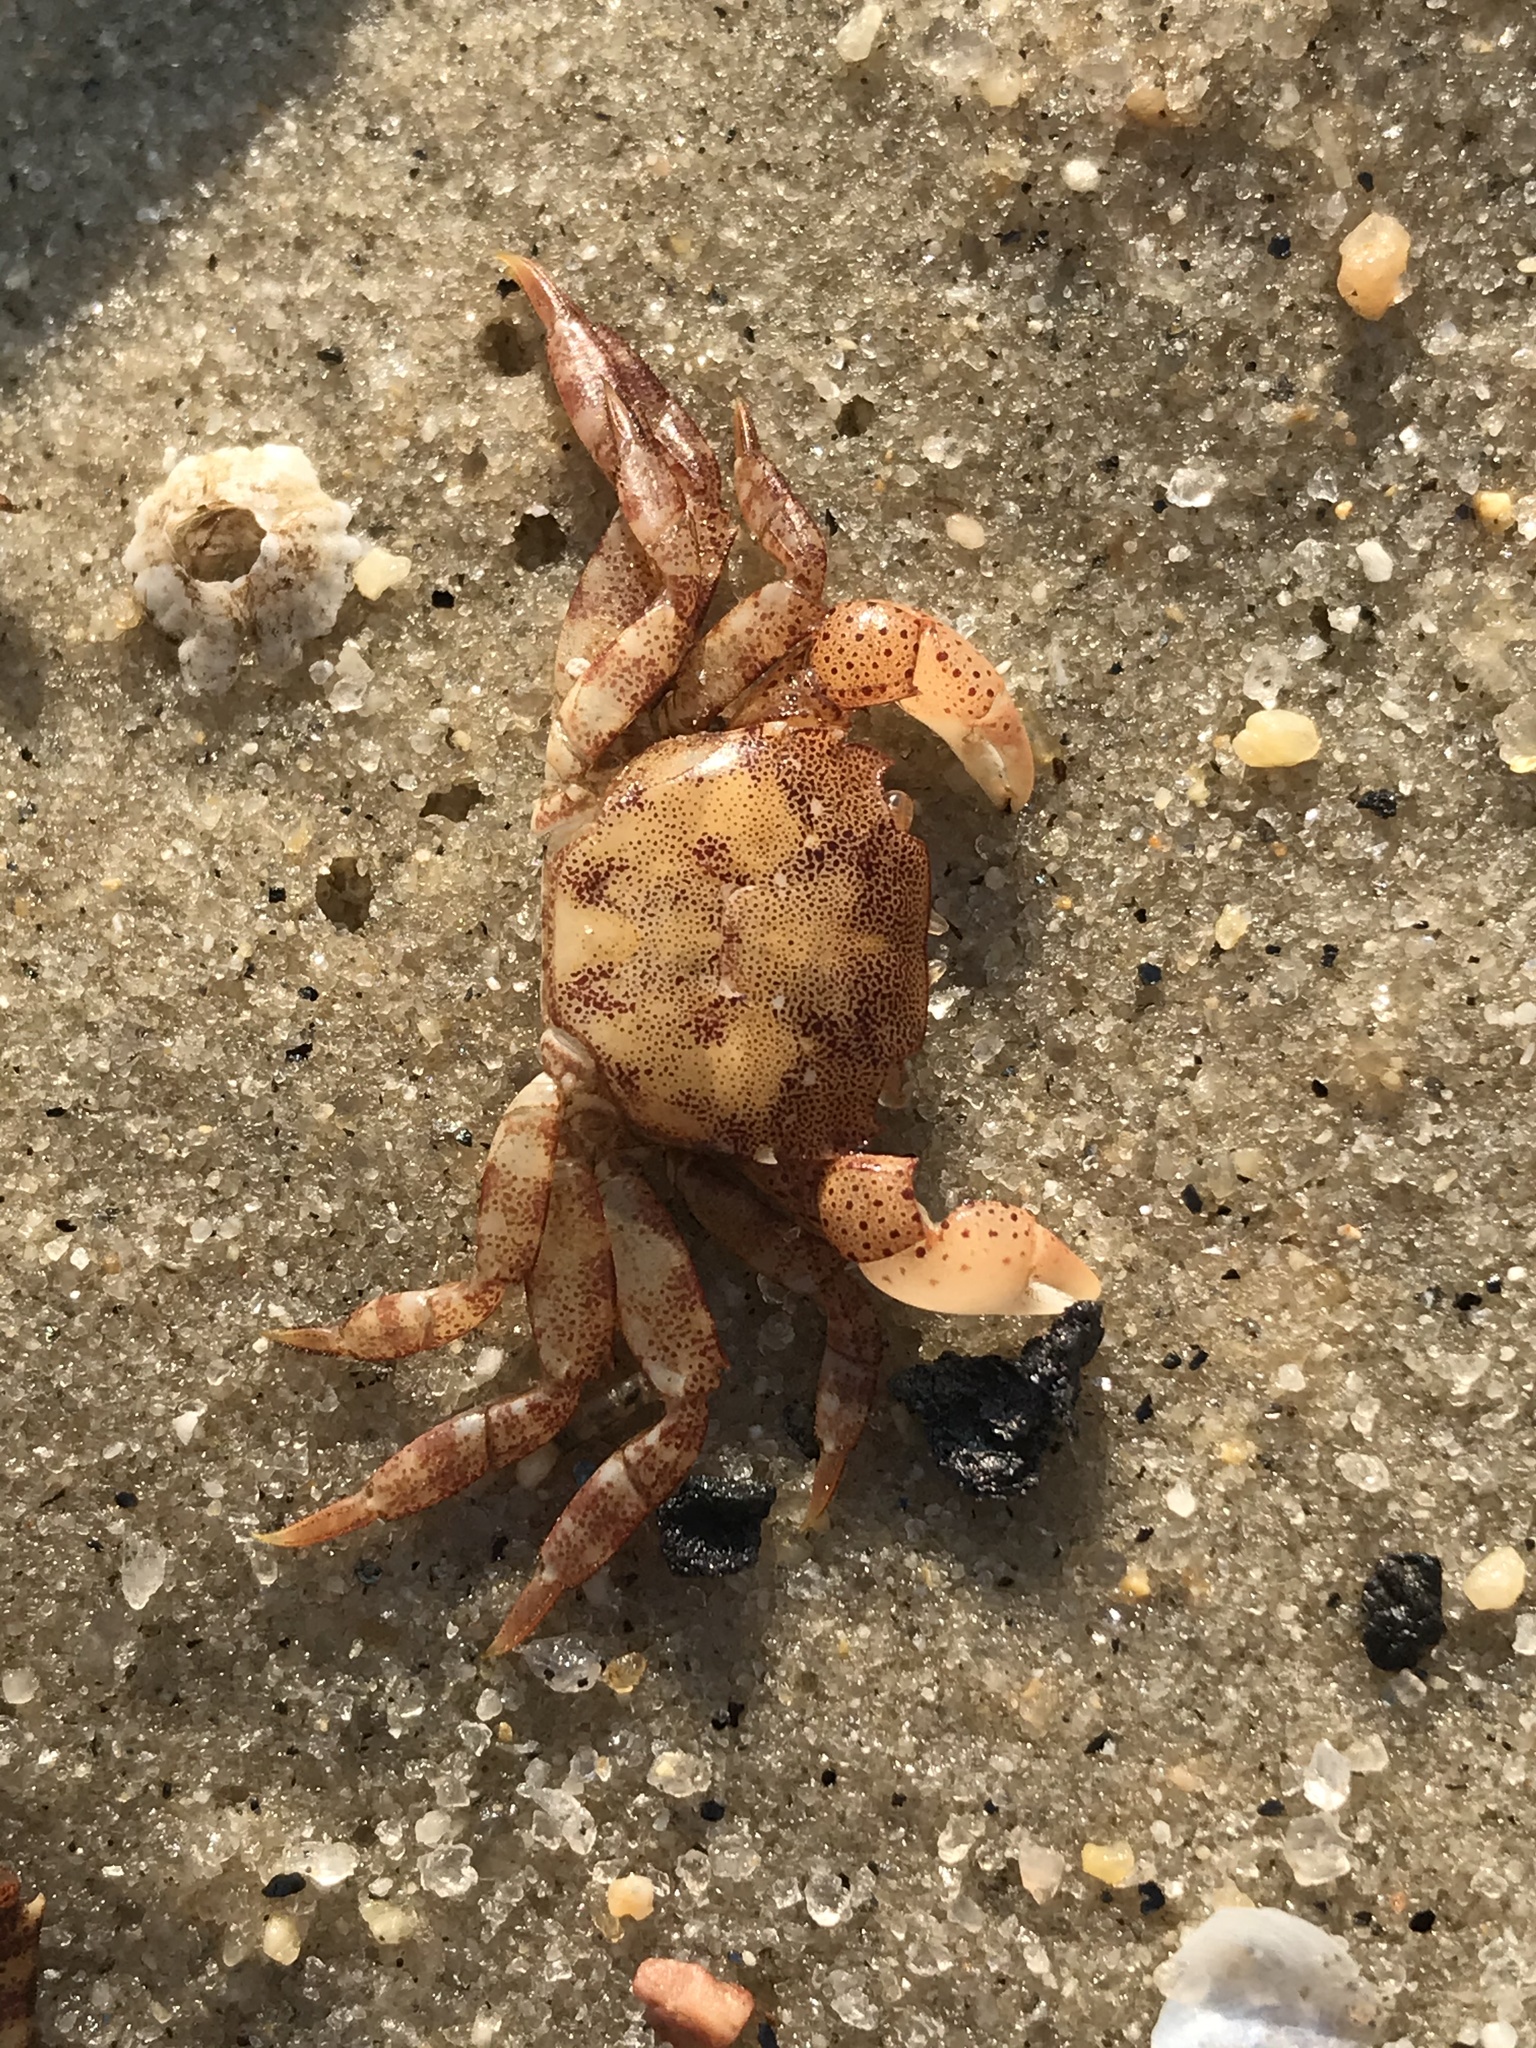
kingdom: Animalia
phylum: Arthropoda
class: Malacostraca
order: Decapoda
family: Varunidae
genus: Hemigrapsus
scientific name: Hemigrapsus sanguineus
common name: Asian shore crab
